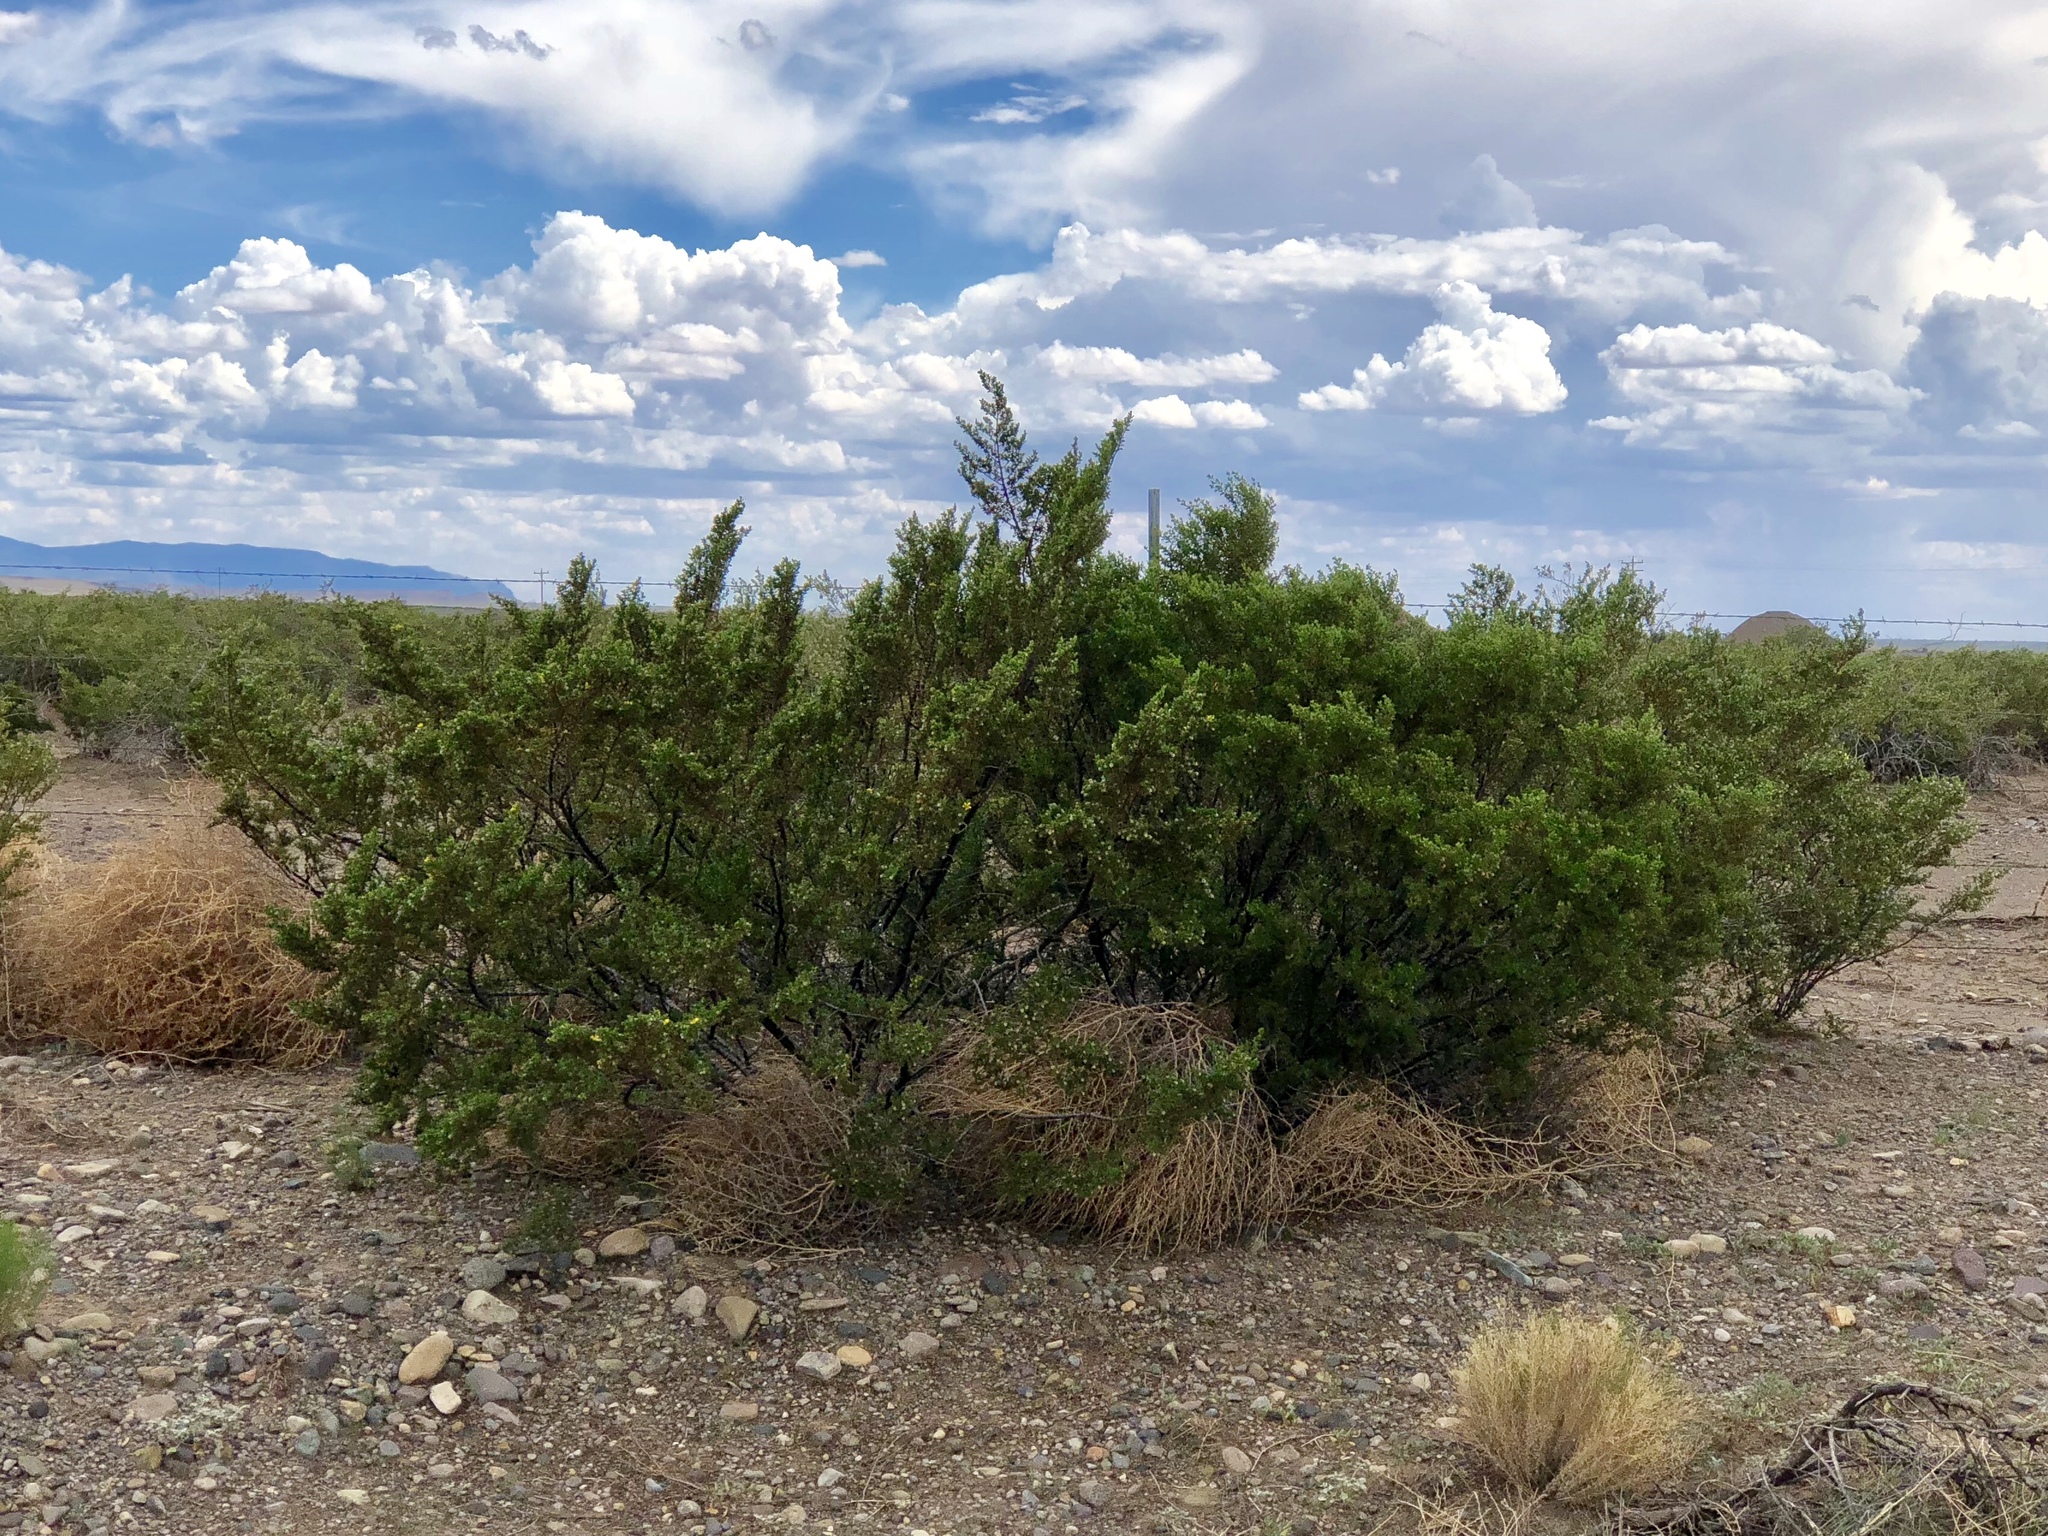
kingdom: Plantae
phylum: Tracheophyta
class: Magnoliopsida
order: Zygophyllales
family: Zygophyllaceae
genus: Larrea
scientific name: Larrea tridentata
